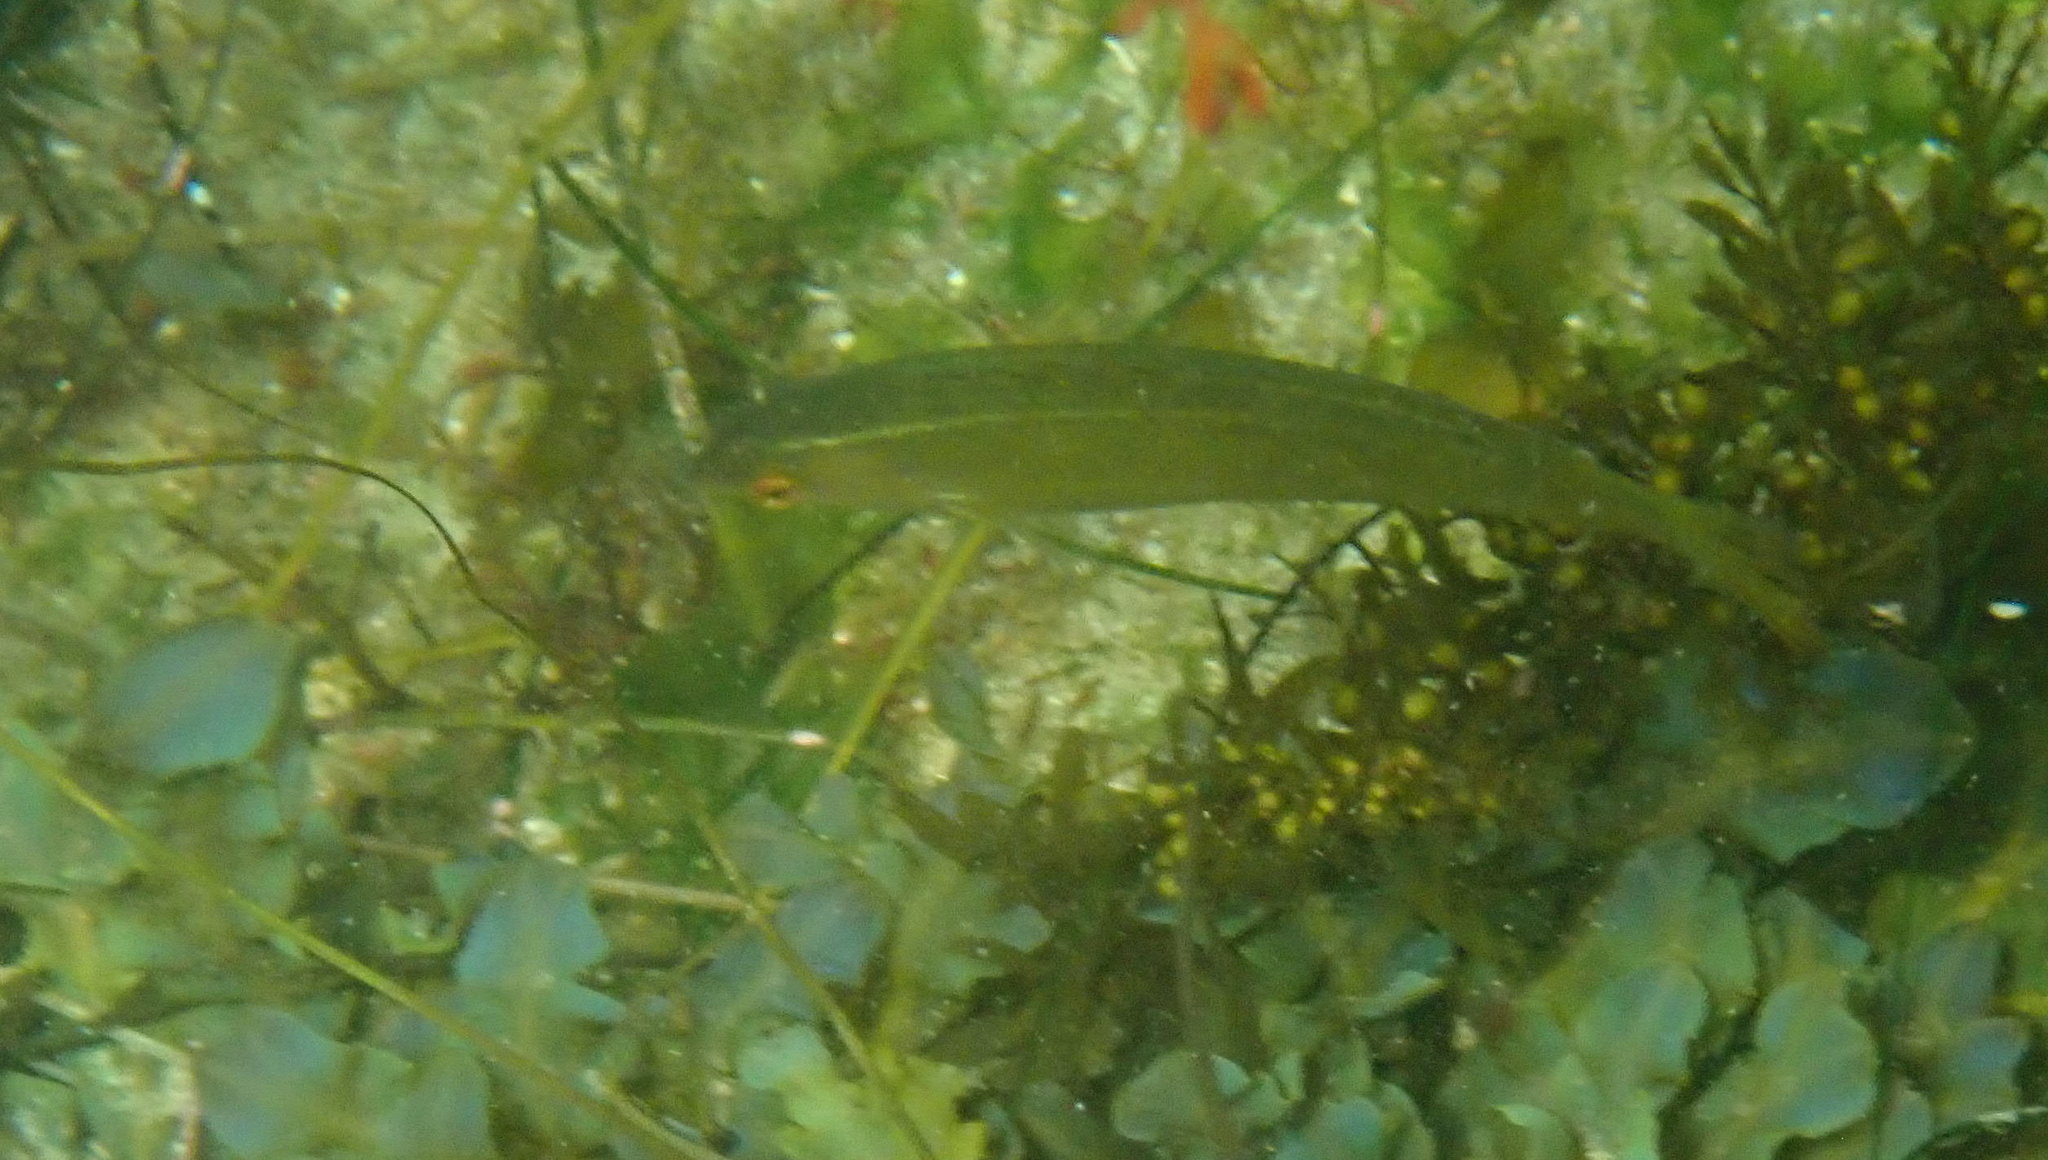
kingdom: Animalia
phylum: Chordata
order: Perciformes
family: Labridae
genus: Oxyjulis
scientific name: Oxyjulis californica
